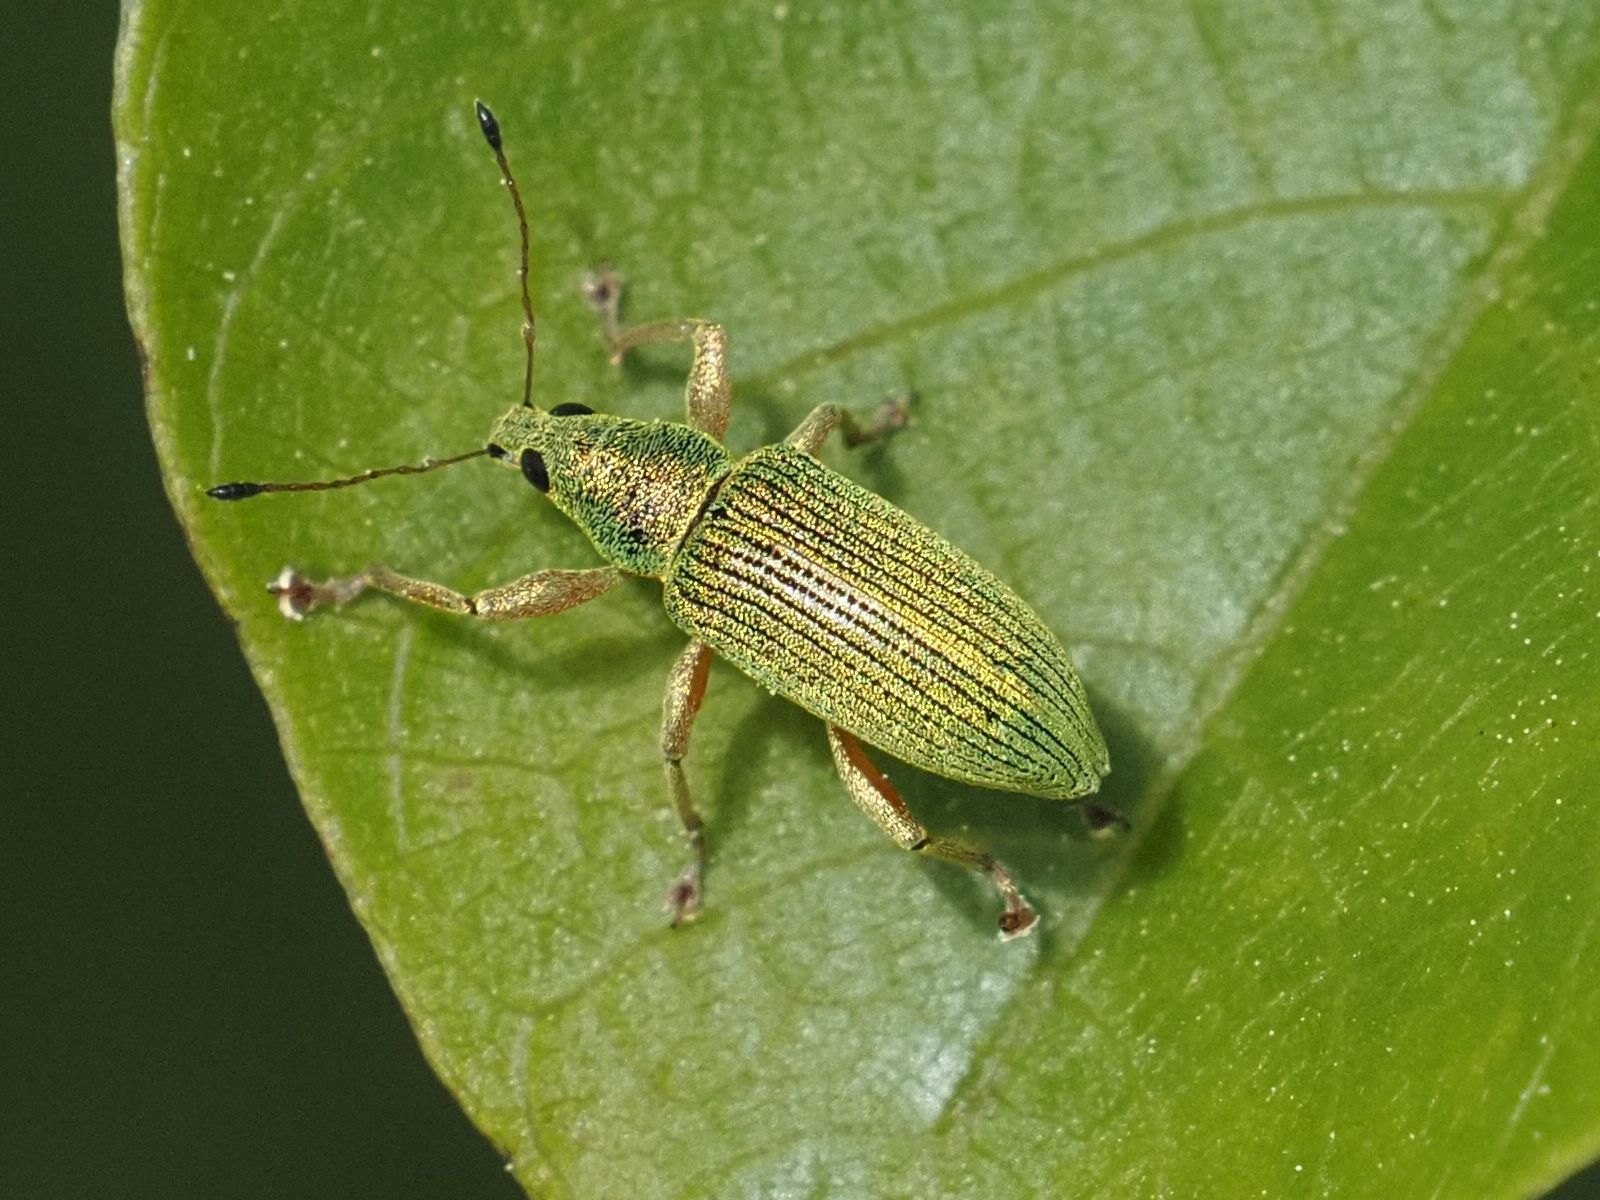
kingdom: Animalia
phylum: Arthropoda
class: Insecta
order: Coleoptera
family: Curculionidae
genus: Polydrusus
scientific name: Polydrusus formosus
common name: Weevil
